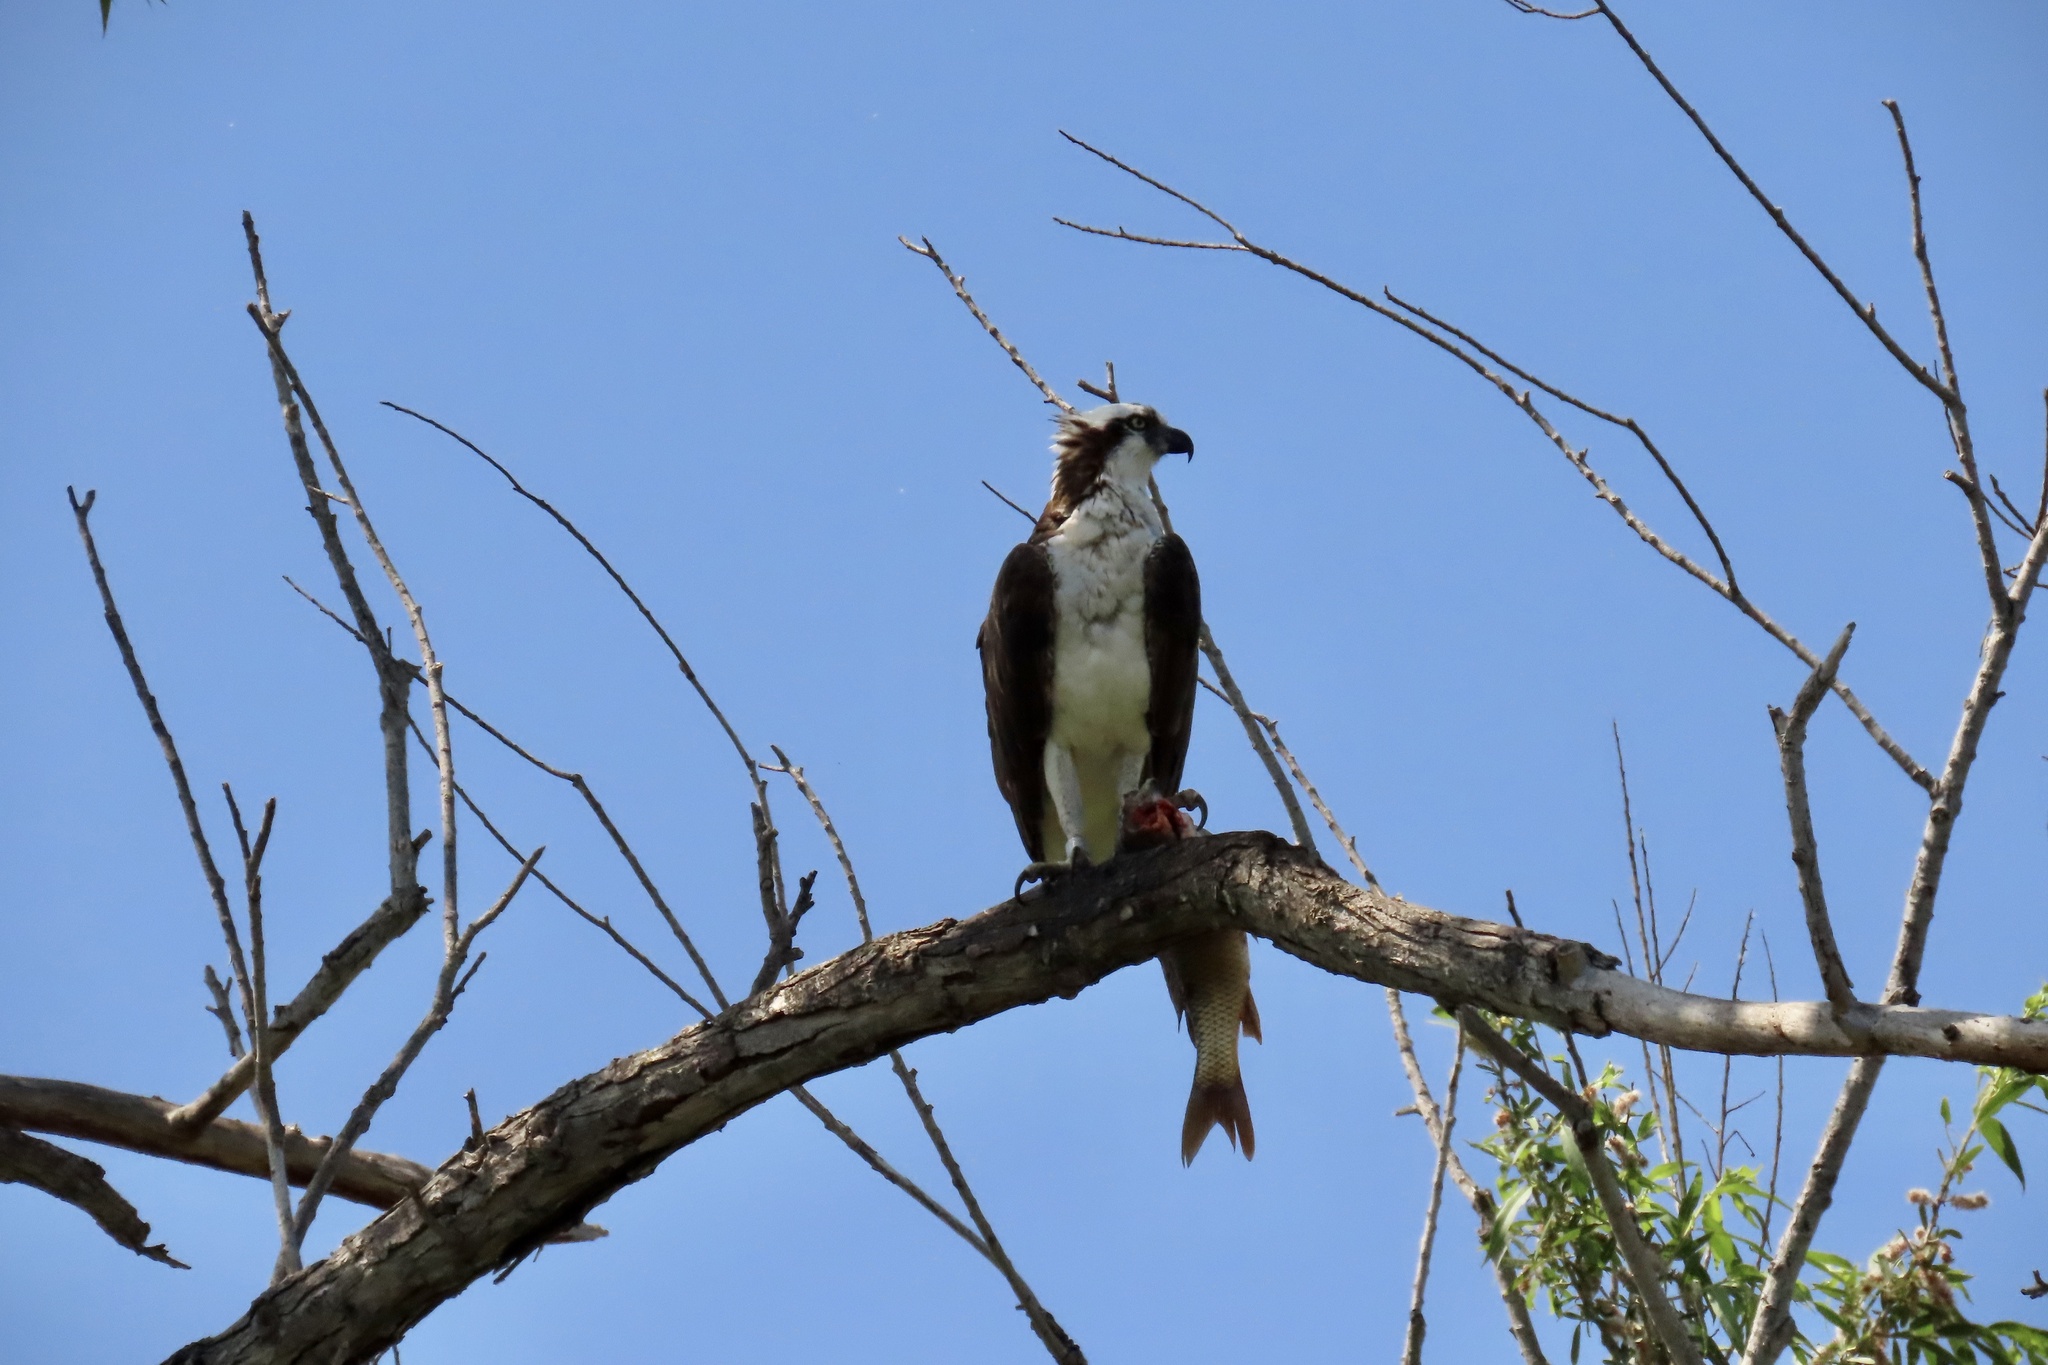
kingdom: Animalia
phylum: Chordata
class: Aves
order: Accipitriformes
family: Pandionidae
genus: Pandion
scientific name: Pandion haliaetus
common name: Osprey
